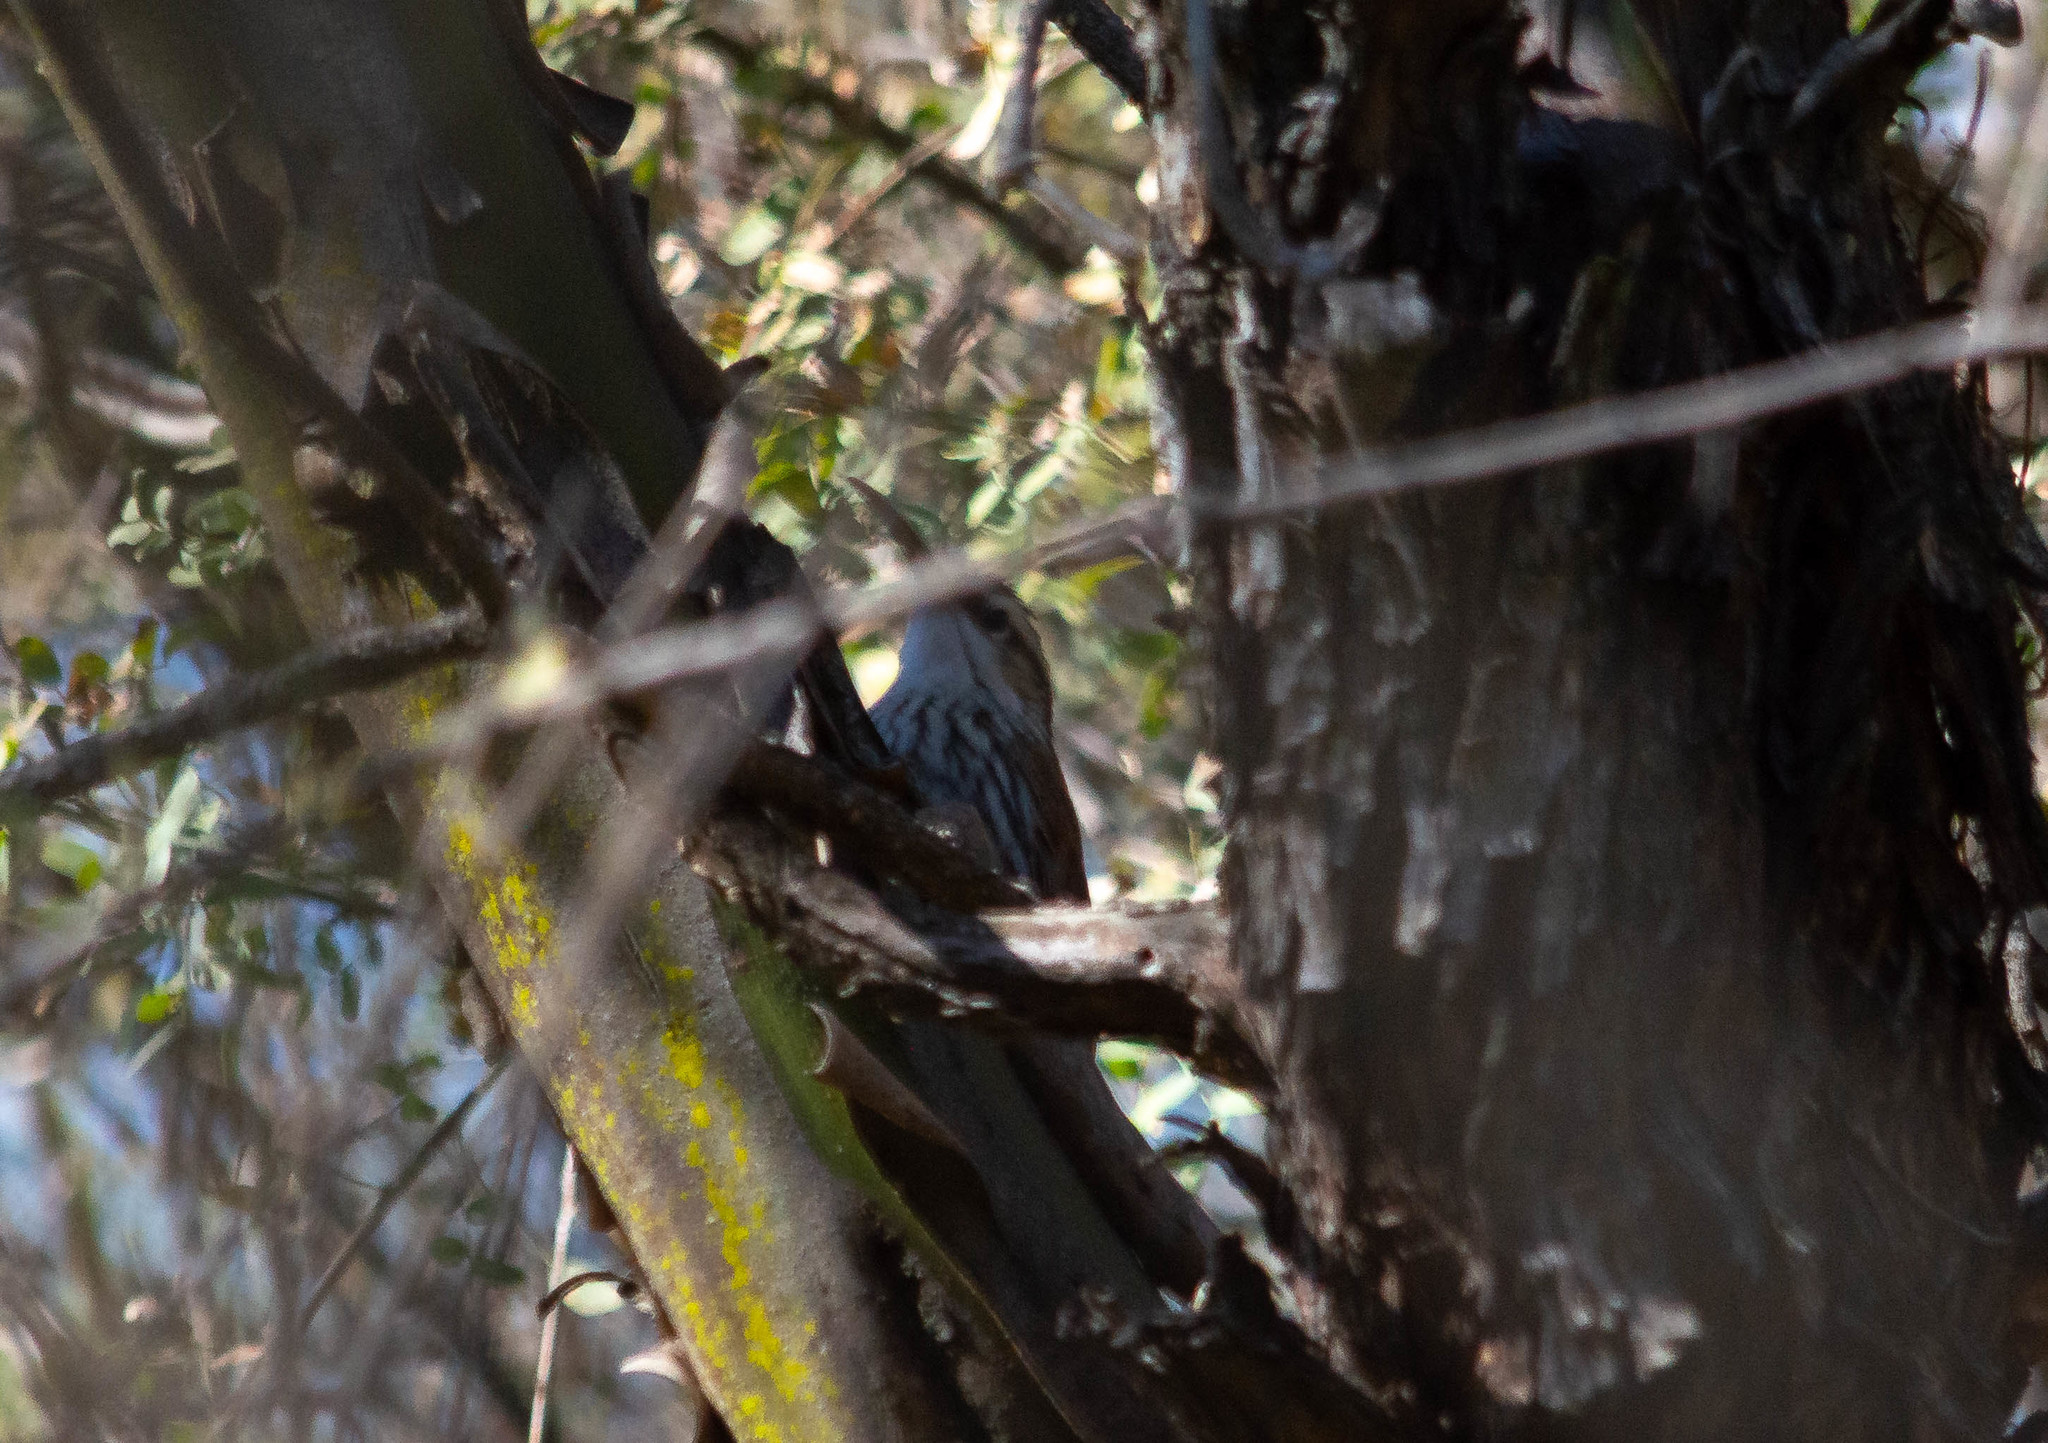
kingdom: Animalia
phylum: Chordata
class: Aves
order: Passeriformes
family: Furnariidae
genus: Lepidocolaptes
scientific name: Lepidocolaptes angustirostris
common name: Narrow-billed woodcreeper
